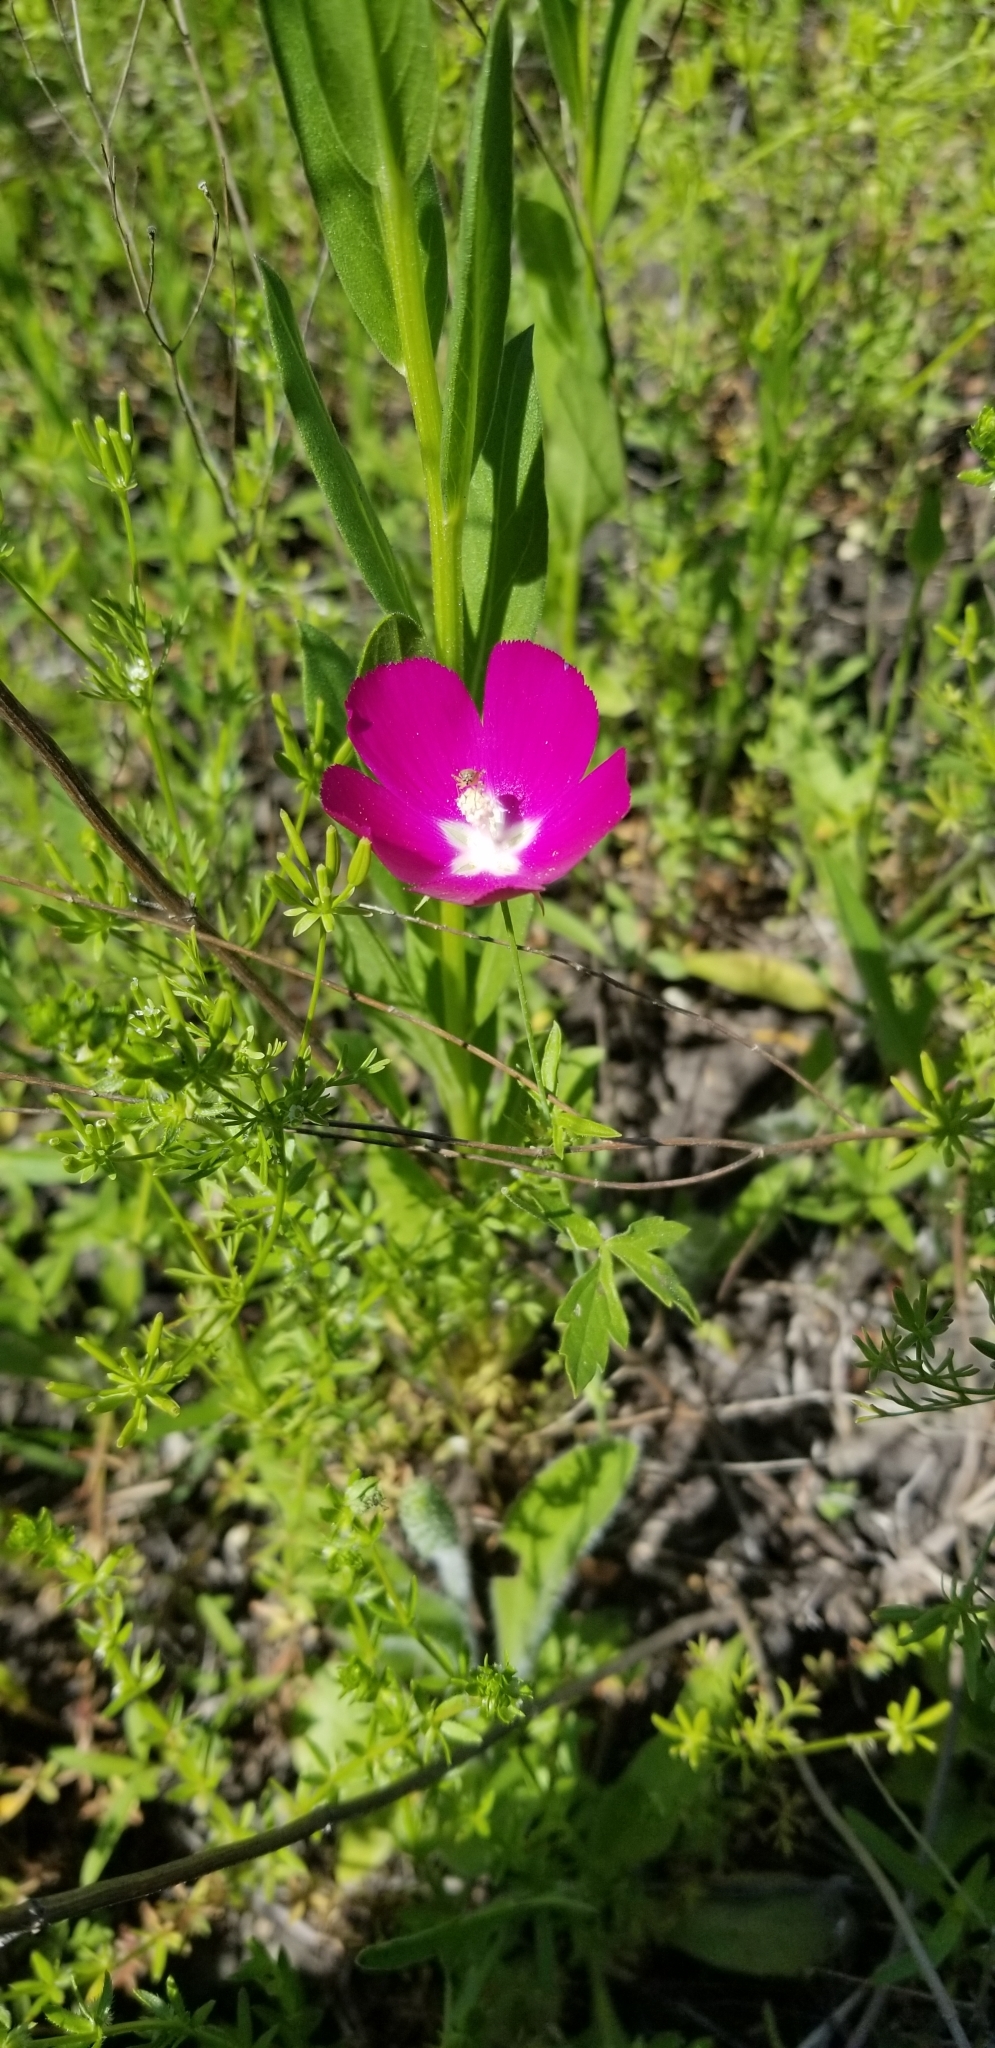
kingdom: Plantae
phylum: Tracheophyta
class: Magnoliopsida
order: Malvales
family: Malvaceae
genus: Callirhoe
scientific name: Callirhoe involucrata
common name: Purple poppy-mallow
